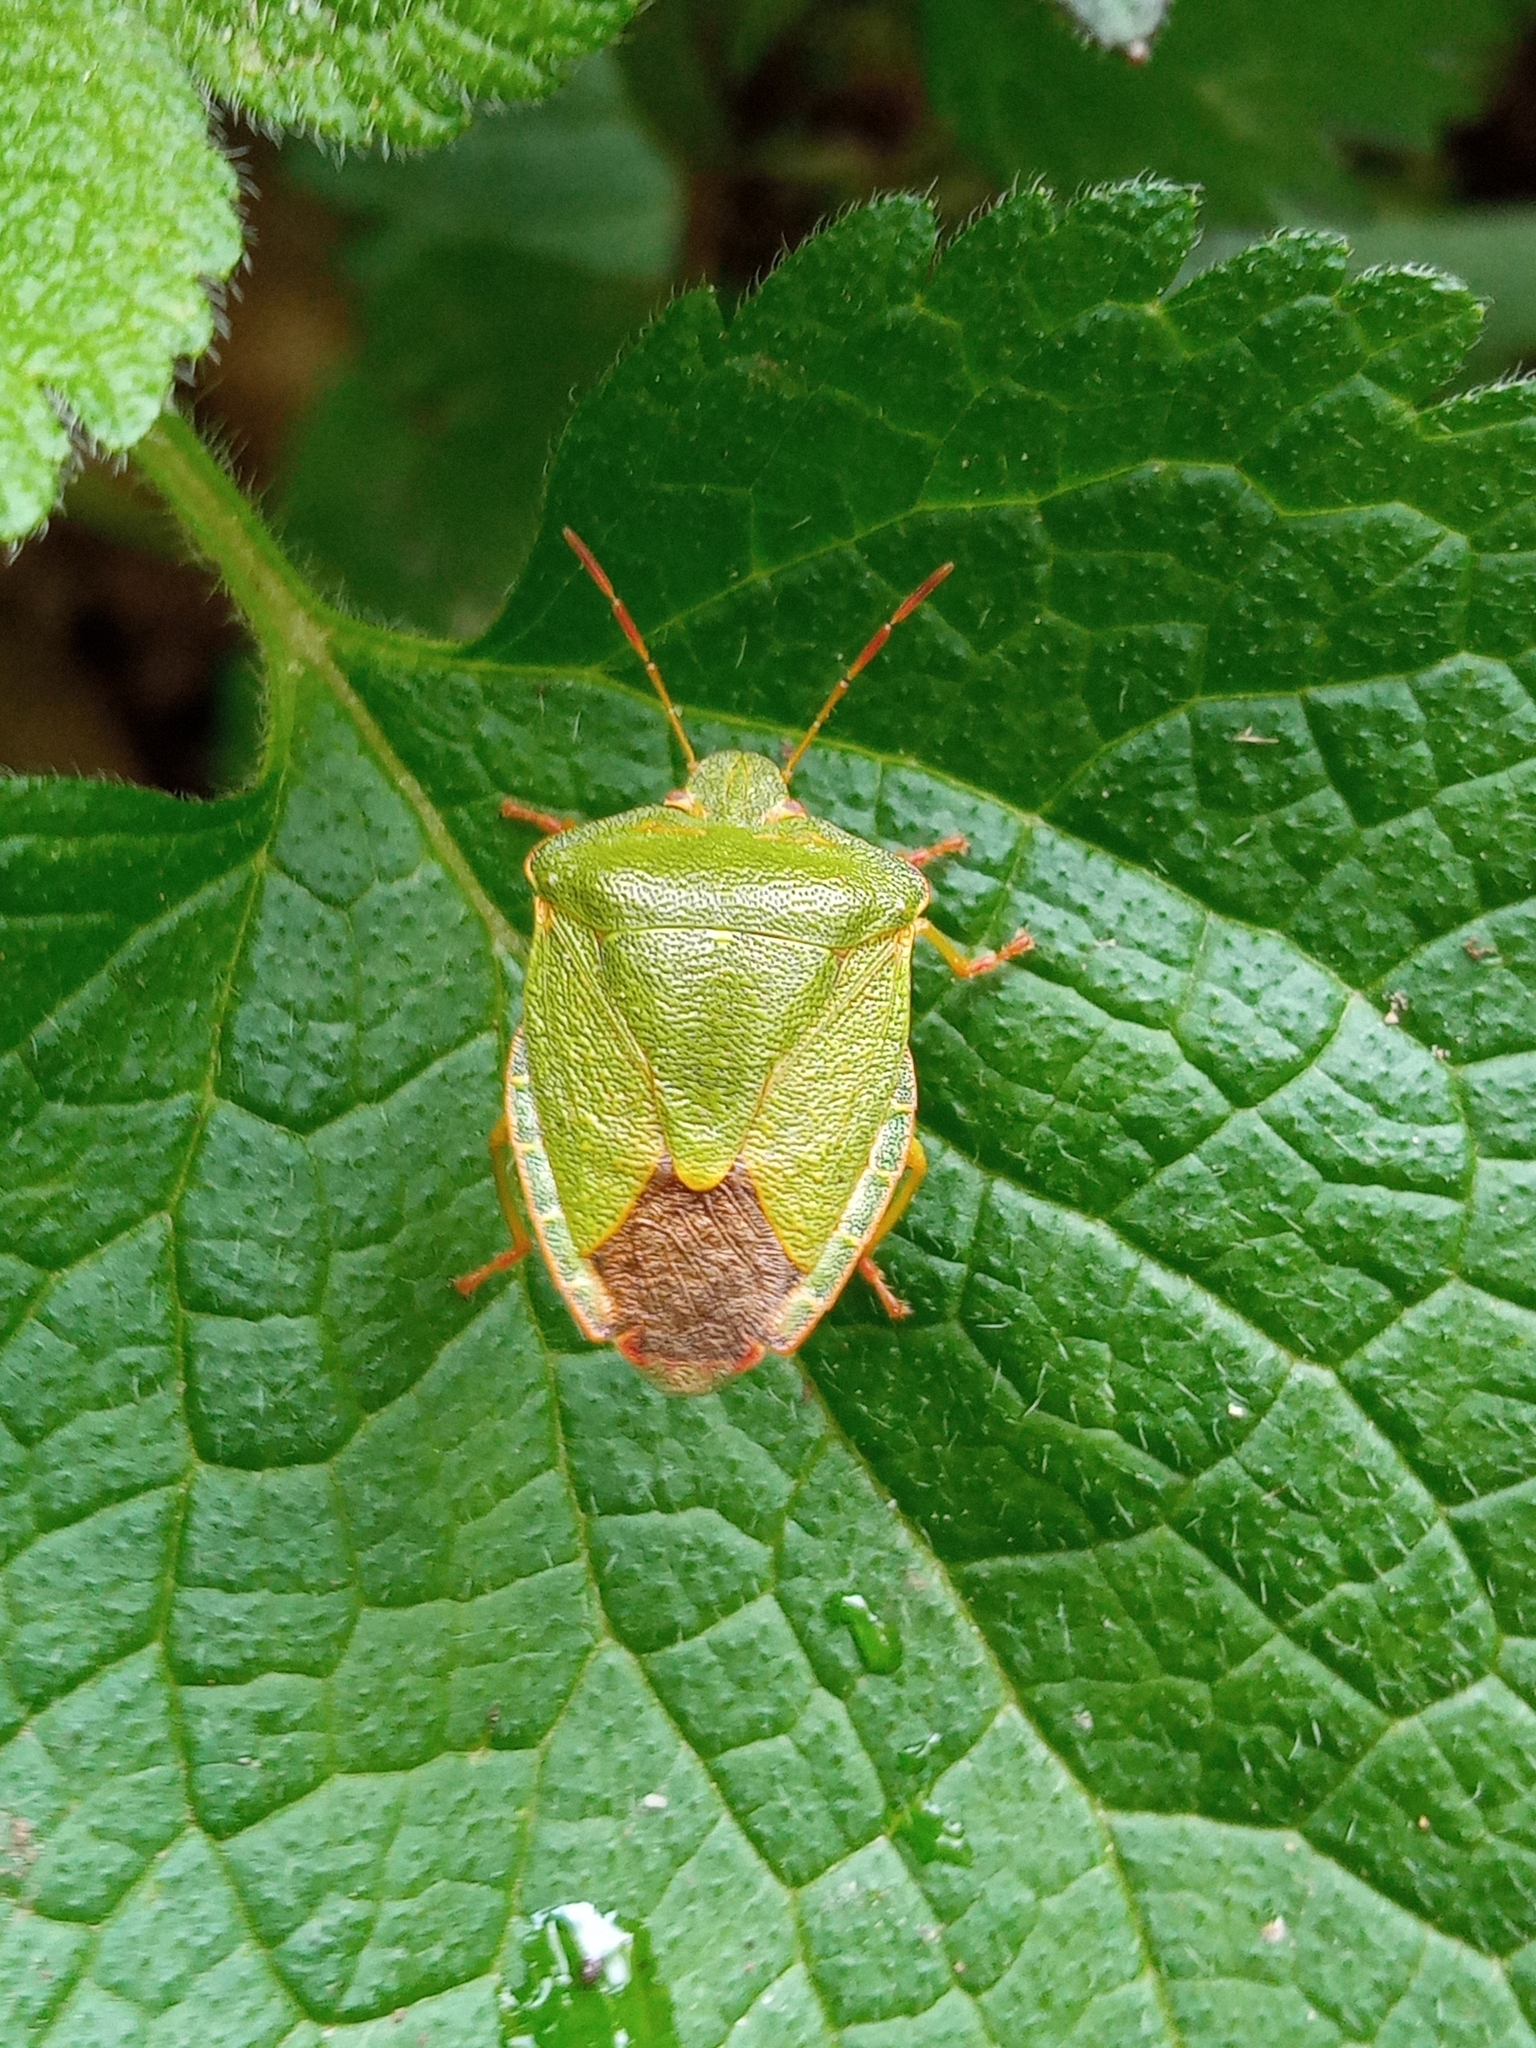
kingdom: Animalia
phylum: Arthropoda
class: Insecta
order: Hemiptera
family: Pentatomidae
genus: Palomena
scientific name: Palomena prasina
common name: Green shieldbug
